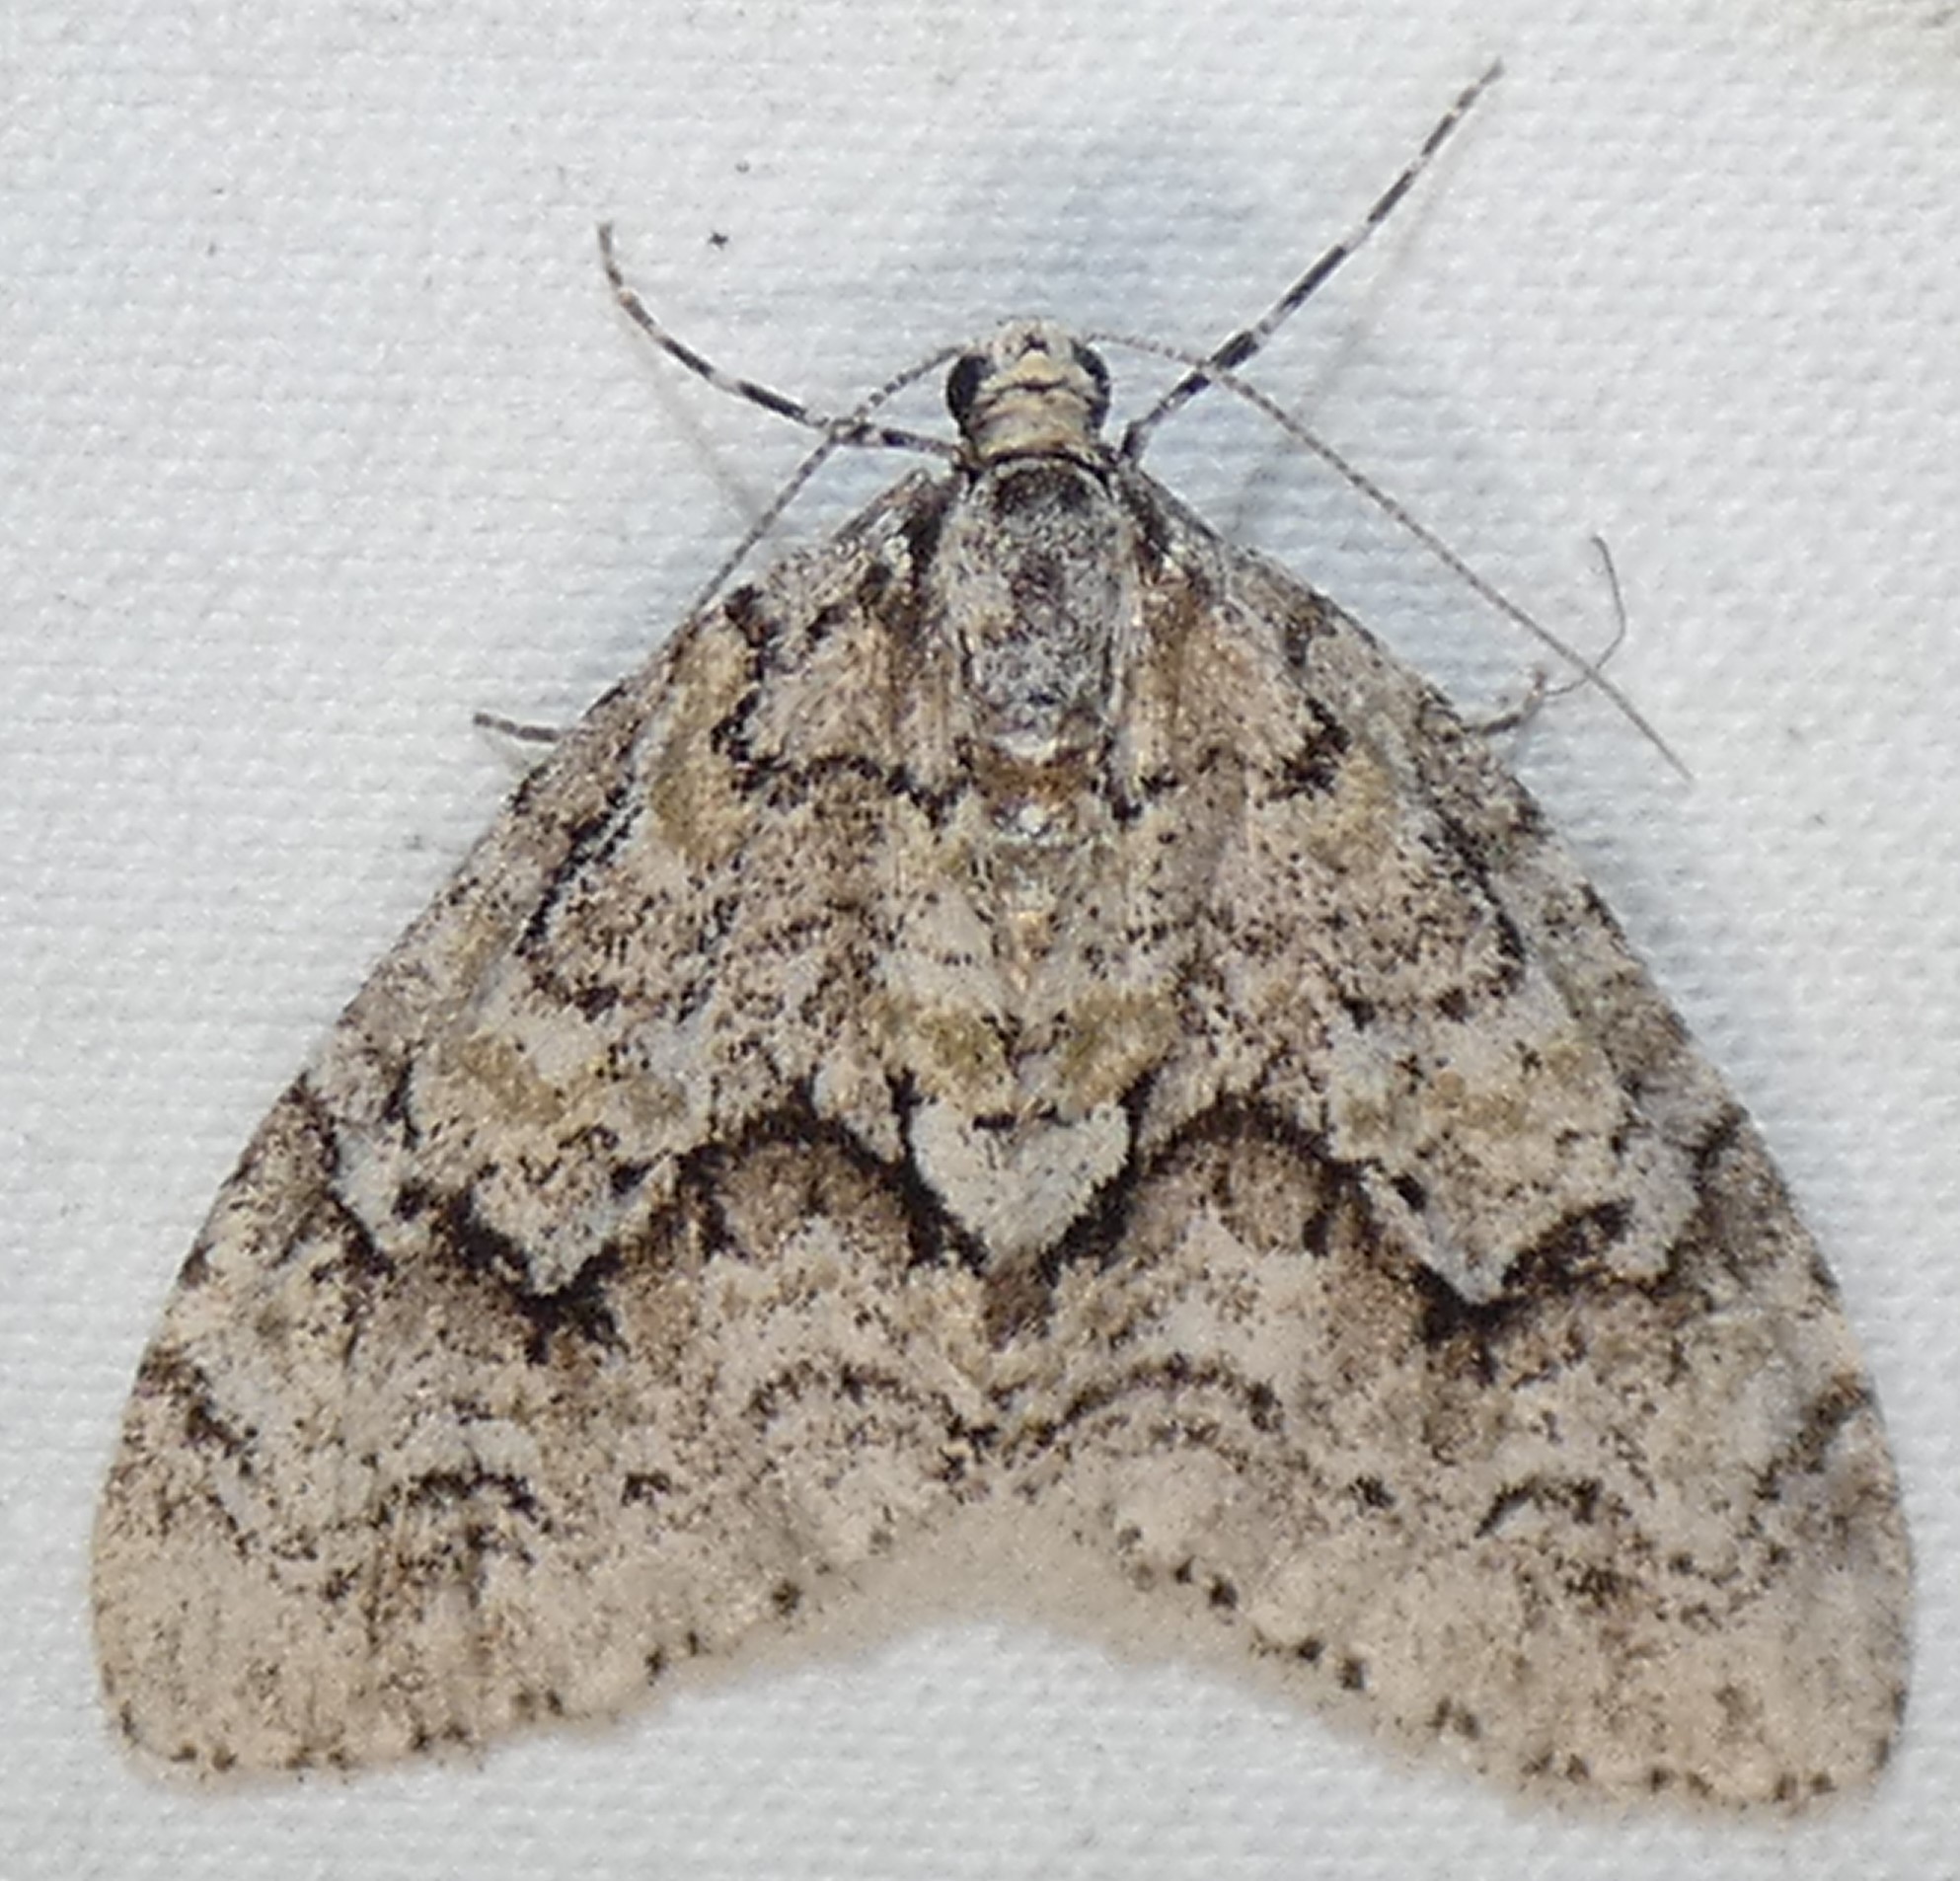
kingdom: Animalia
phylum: Arthropoda
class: Insecta
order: Lepidoptera
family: Geometridae
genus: Cladara
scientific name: Cladara limitaria
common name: Mottled gray carpet
